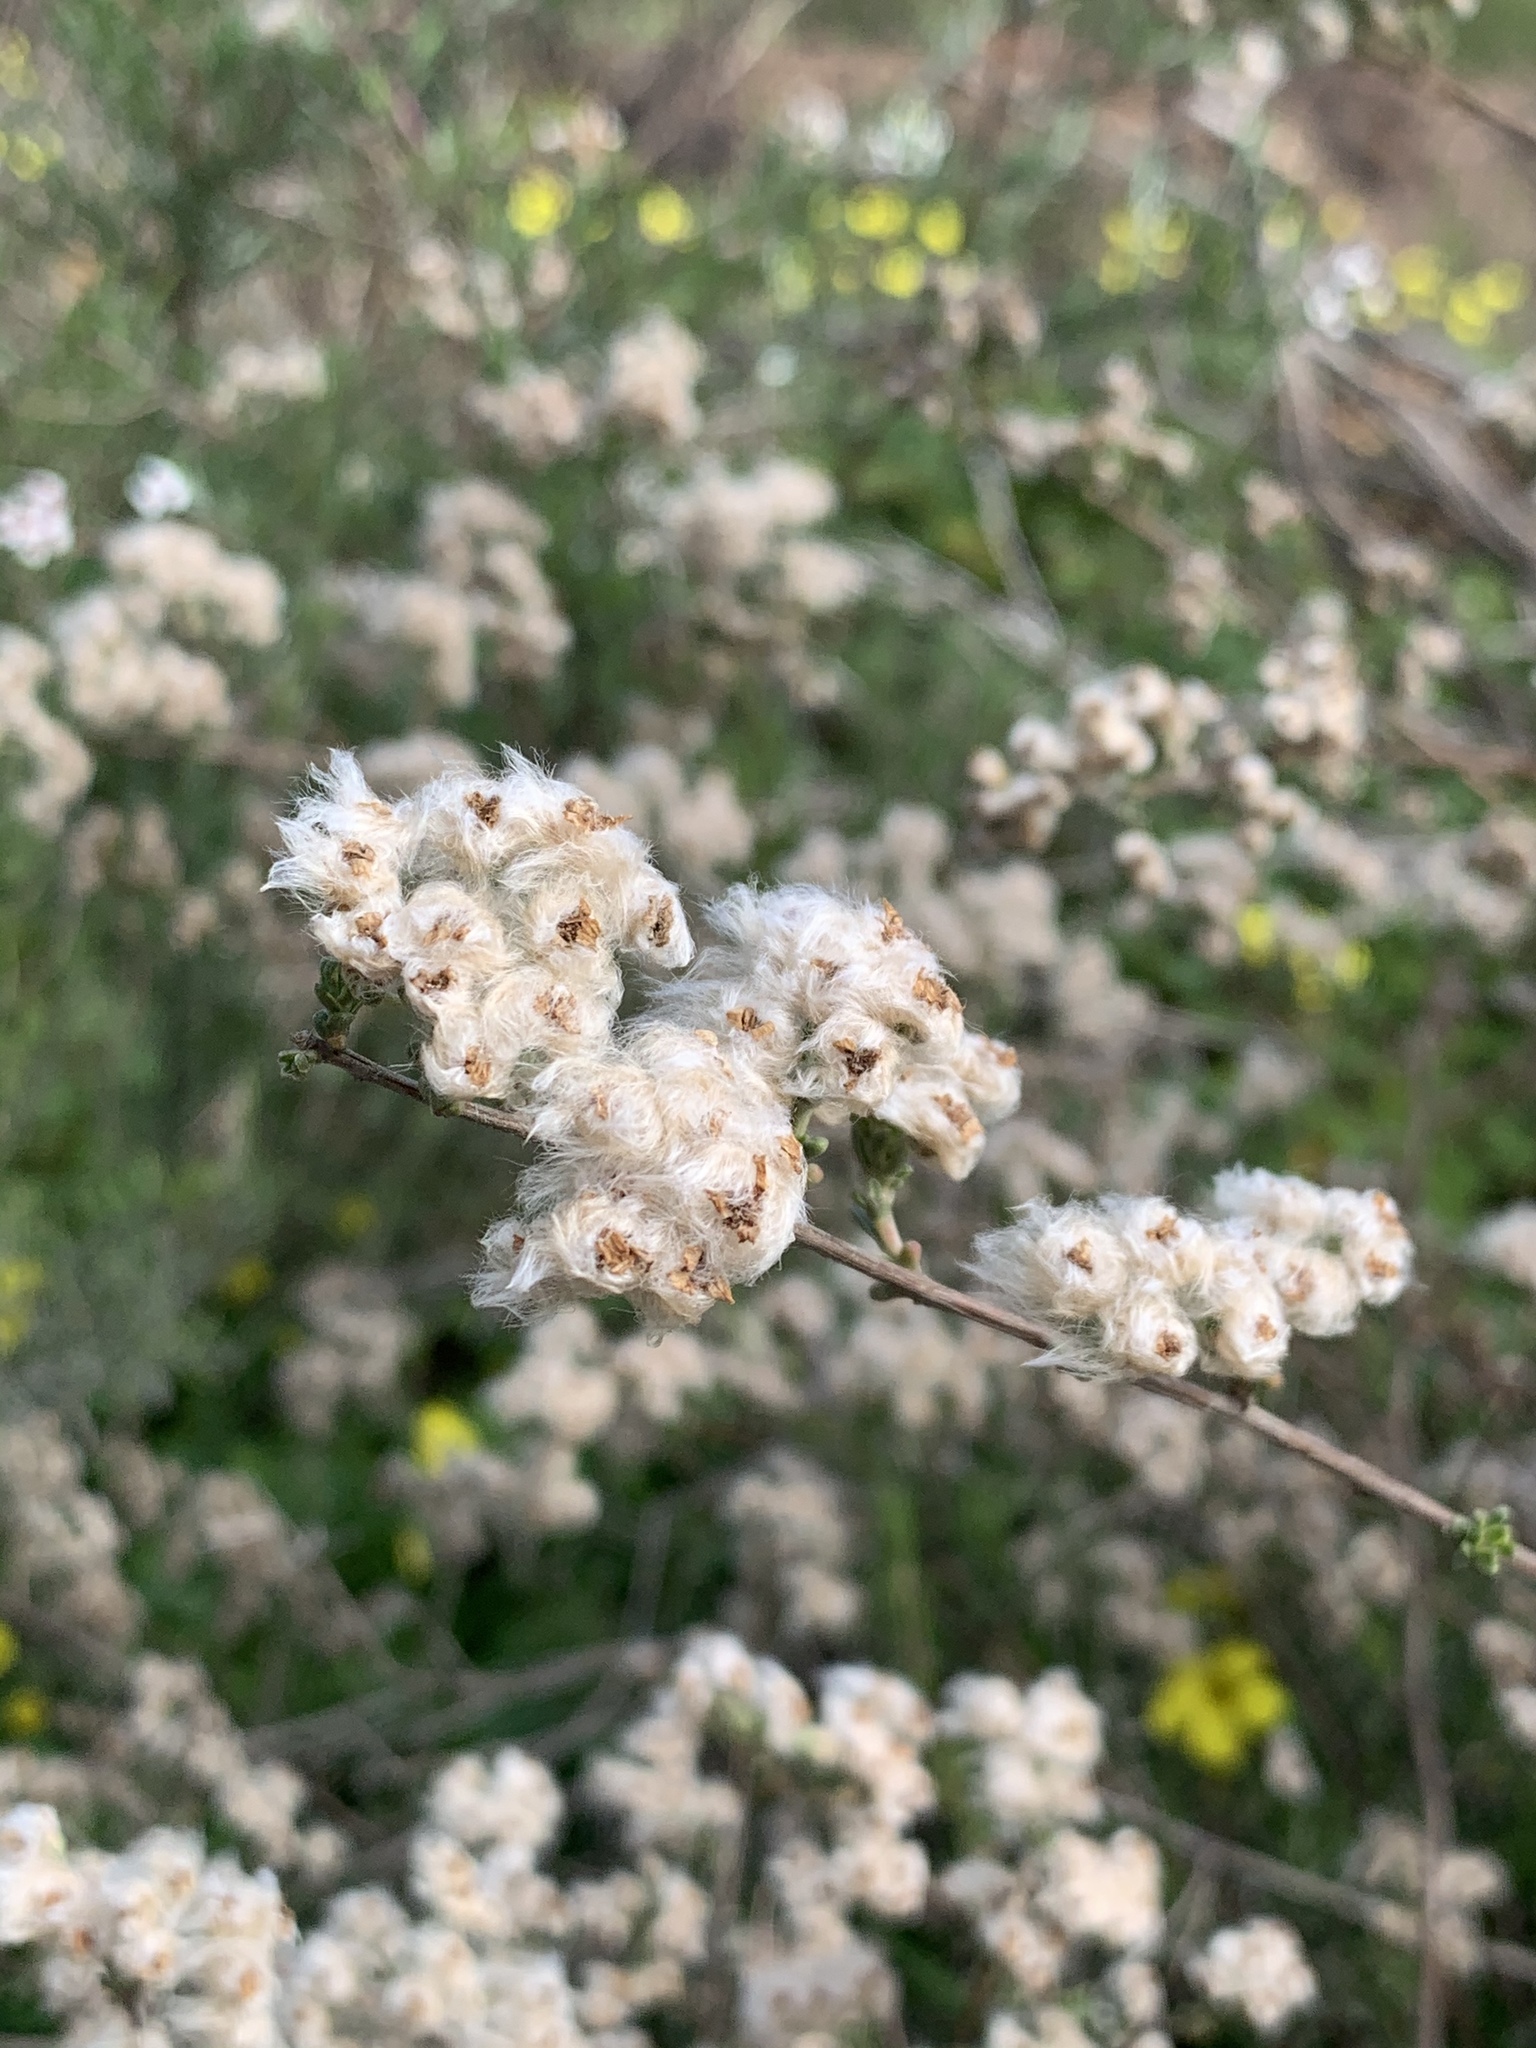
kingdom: Plantae
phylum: Tracheophyta
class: Magnoliopsida
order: Asterales
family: Asteraceae
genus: Eriocephalus
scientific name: Eriocephalus africanus
